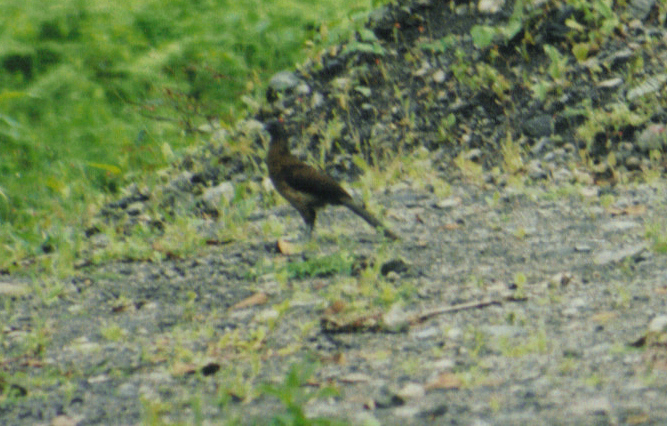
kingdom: Animalia
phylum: Chordata
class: Aves
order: Galliformes
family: Cracidae
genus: Ortalis
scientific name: Ortalis cinereiceps
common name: Grey-headed chachalaca
